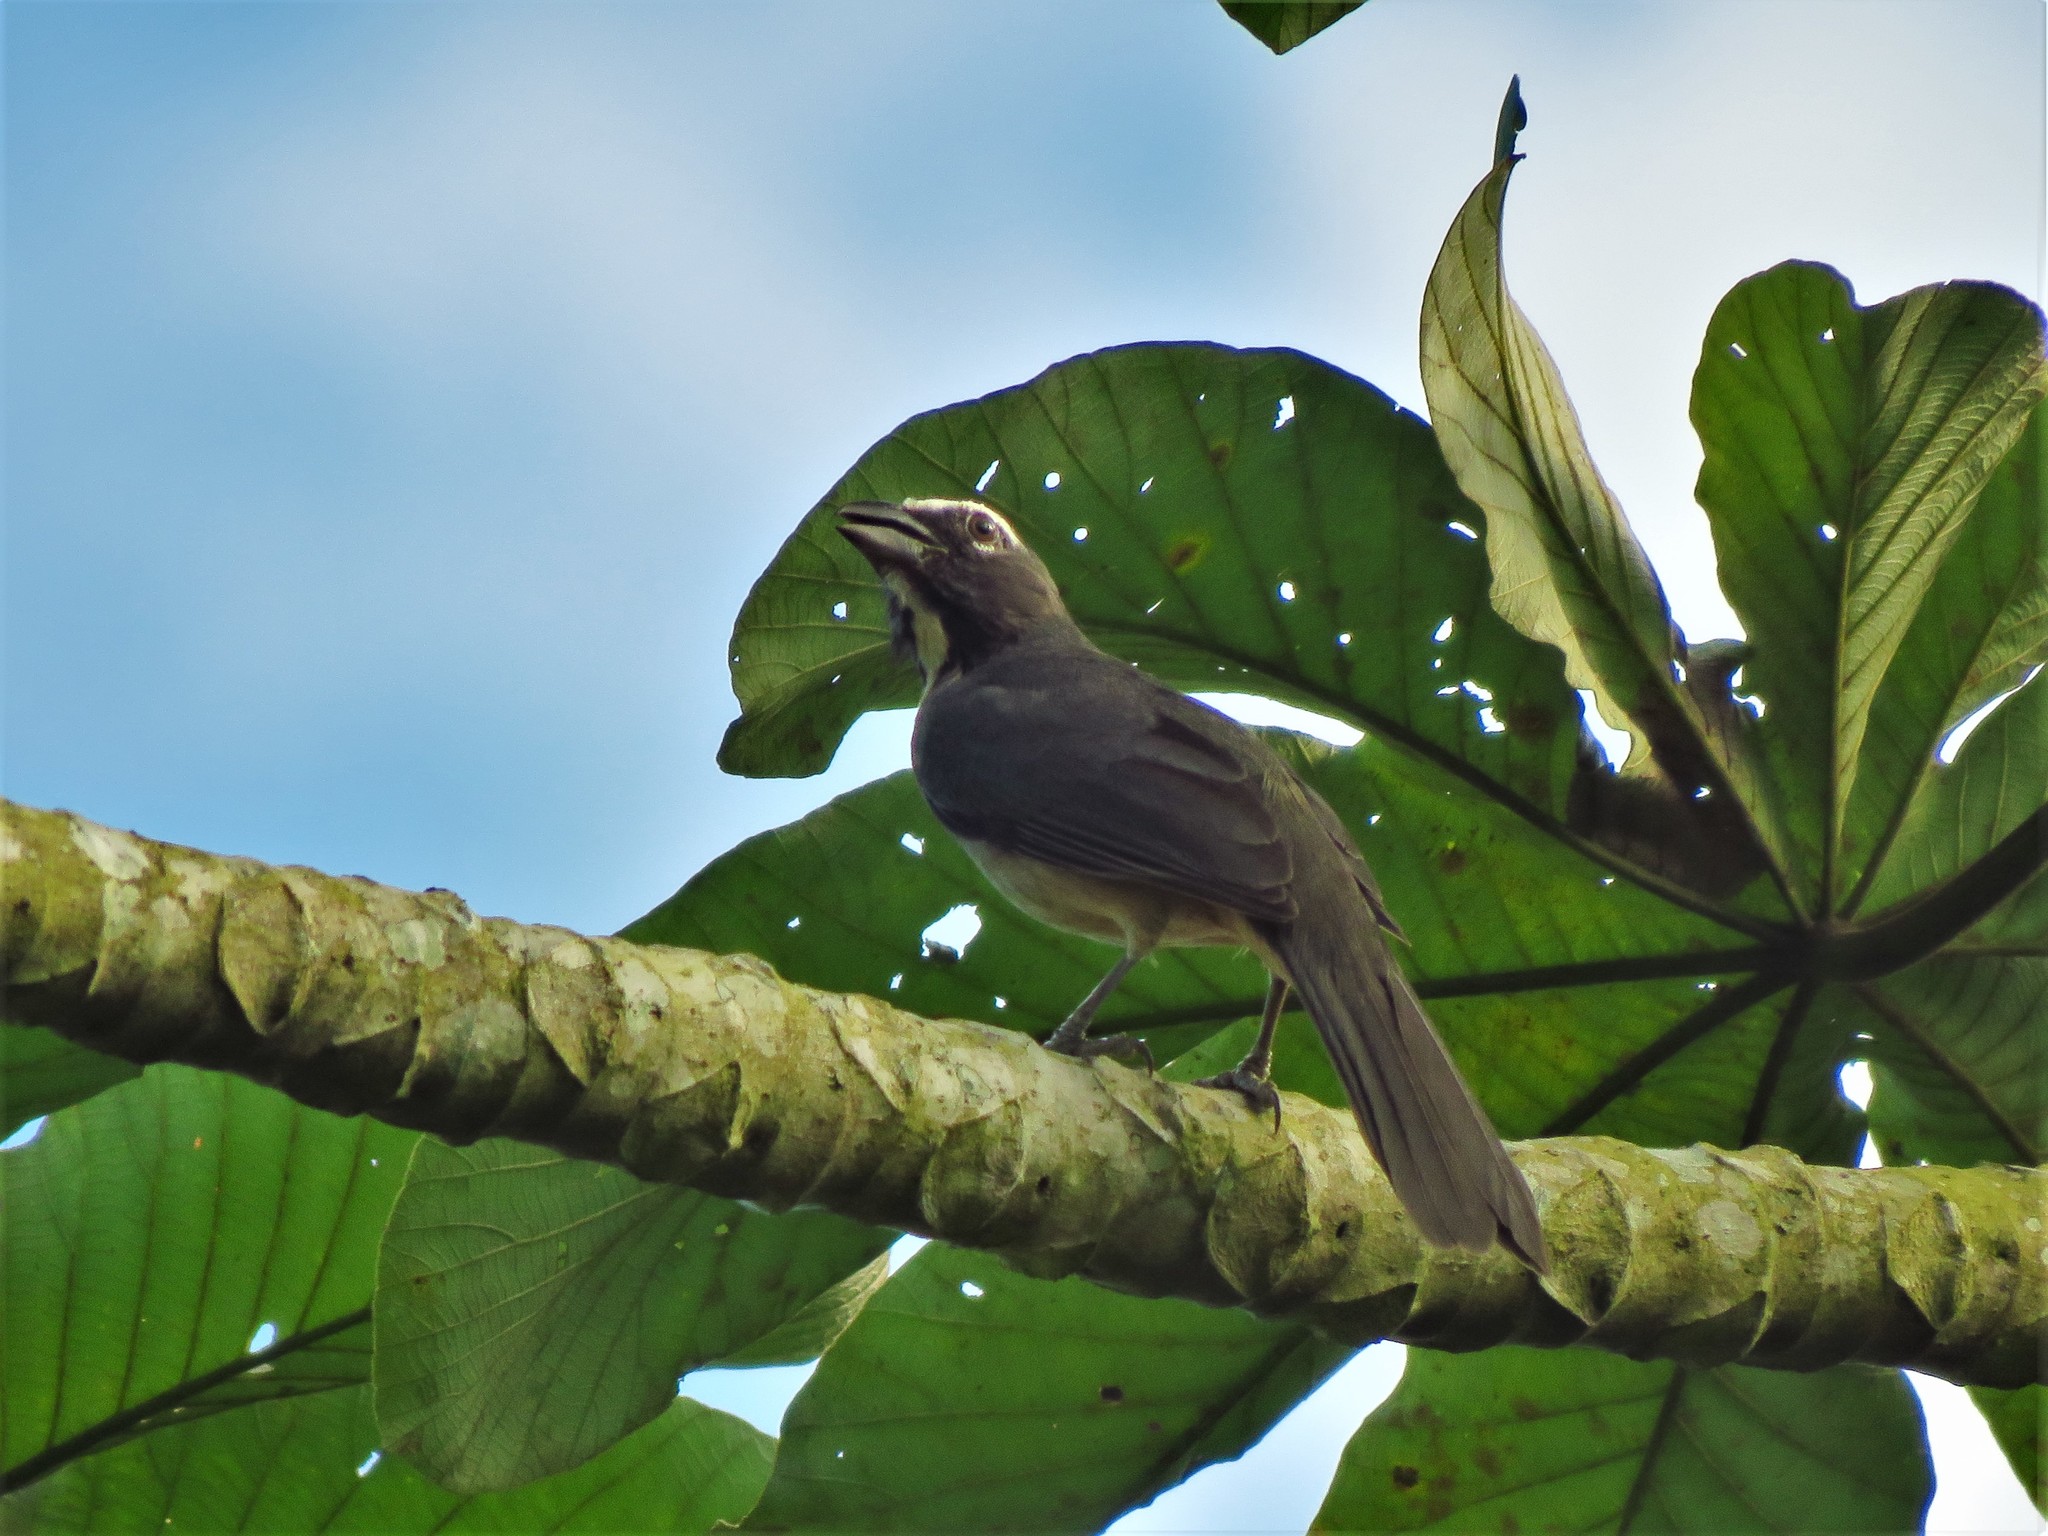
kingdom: Animalia
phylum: Chordata
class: Aves
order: Passeriformes
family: Thraupidae
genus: Saltator
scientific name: Saltator grandis
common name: Cinnamon-bellied saltator
